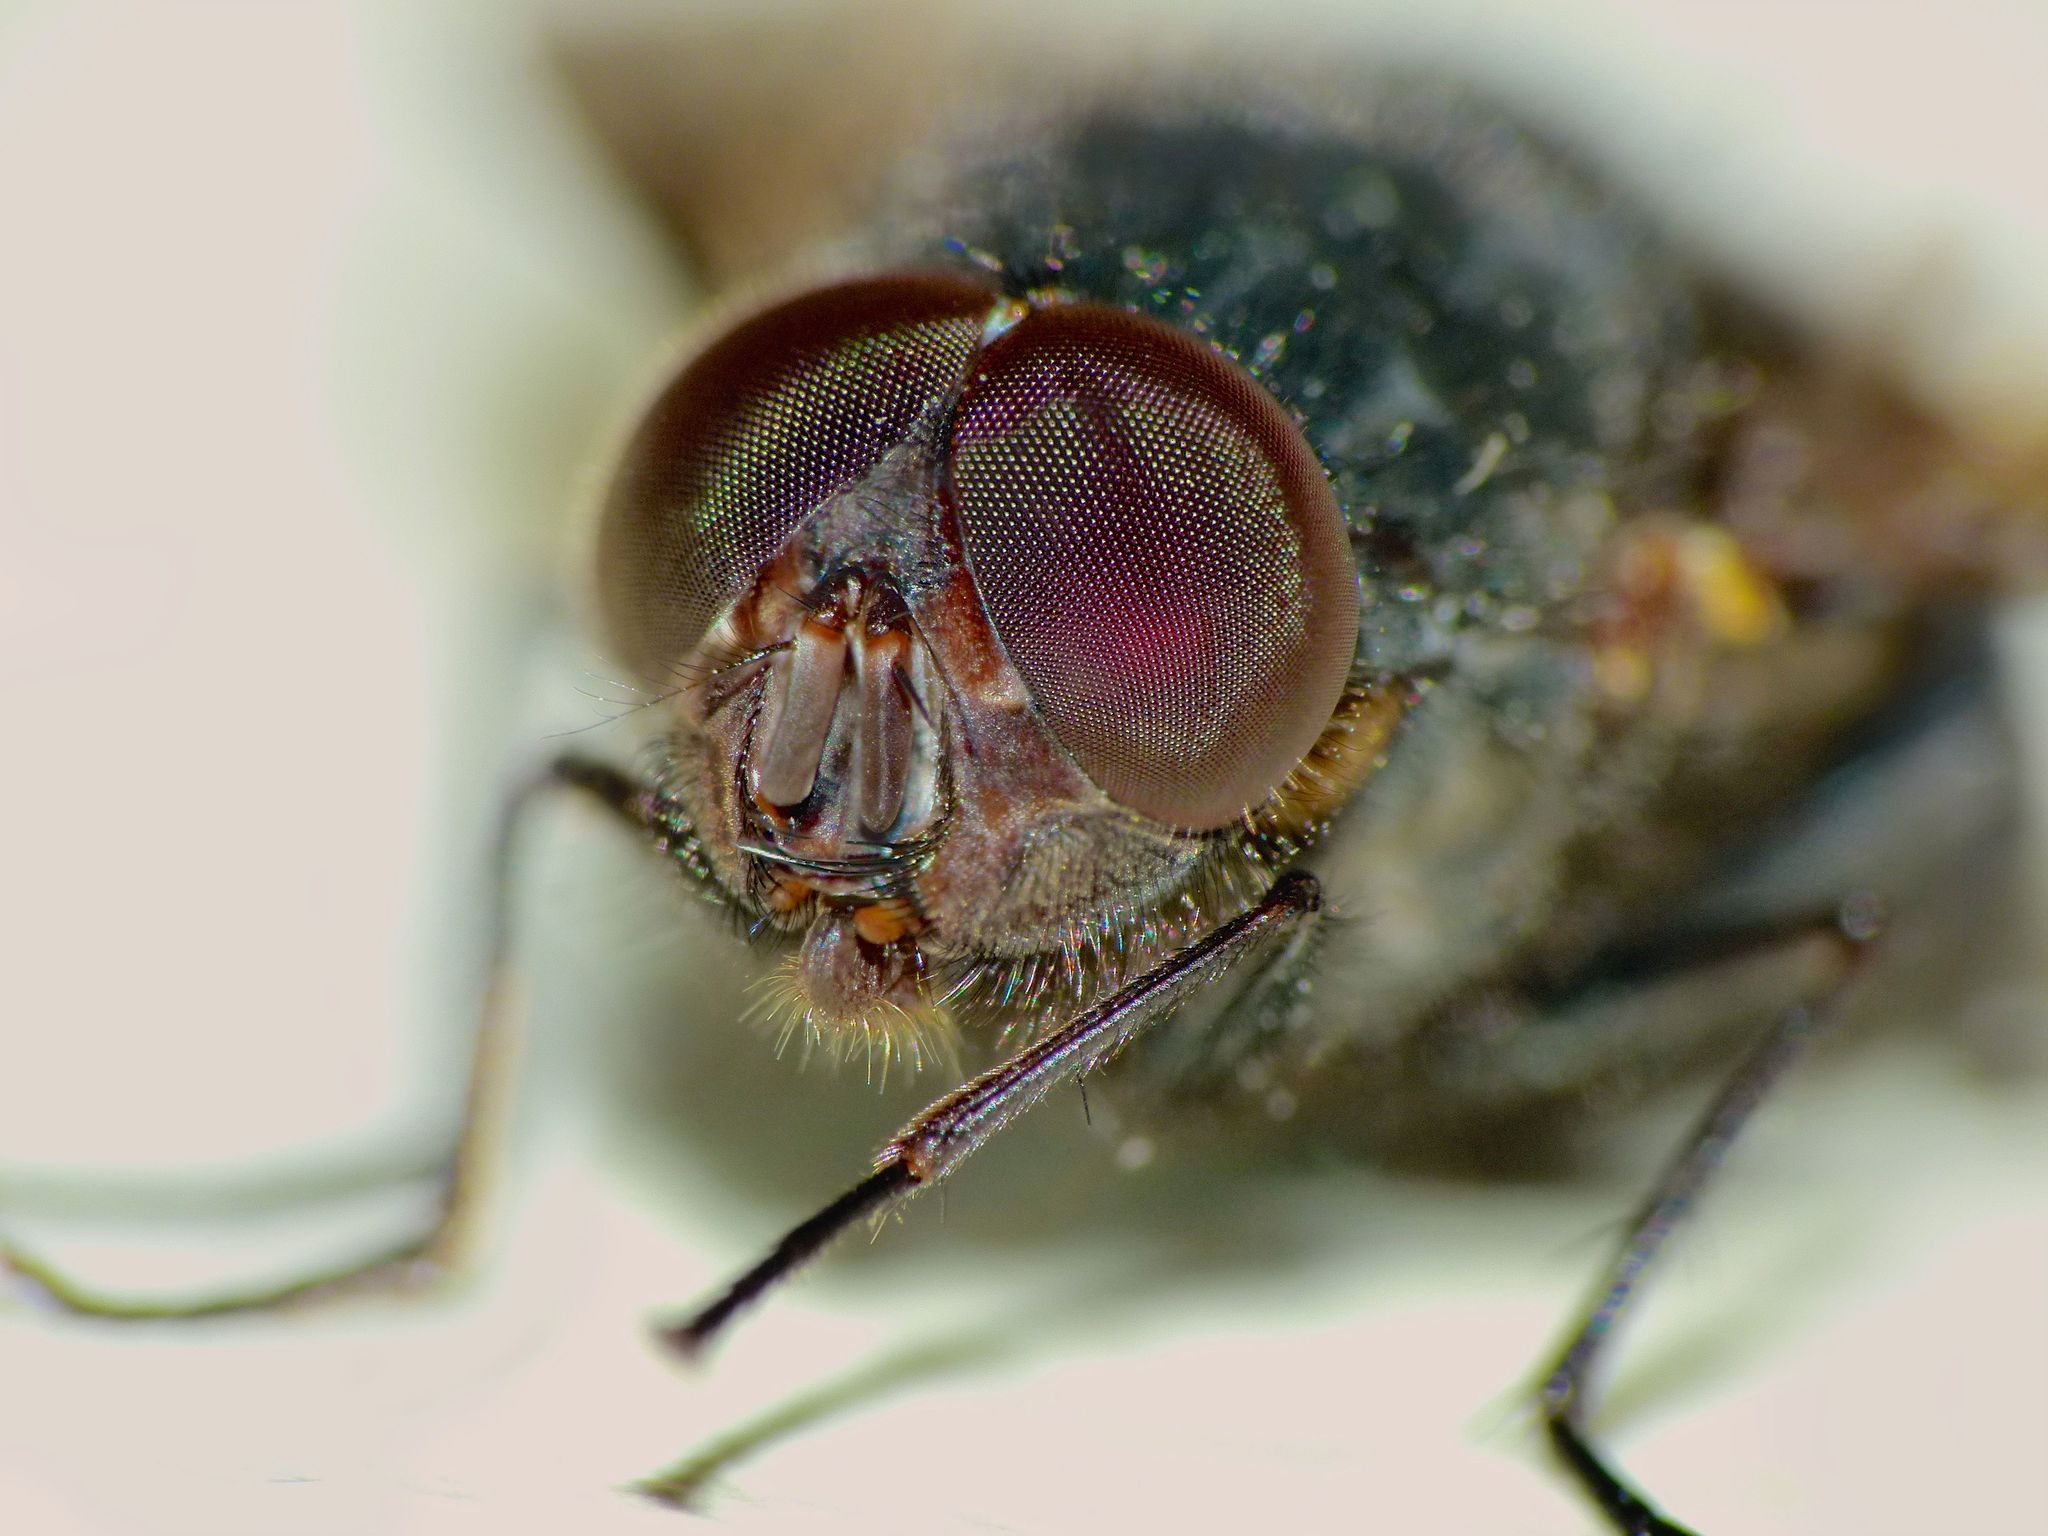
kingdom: Animalia
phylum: Arthropoda
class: Insecta
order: Diptera
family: Calliphoridae
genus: Calliphora
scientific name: Calliphora quadrimaculata
